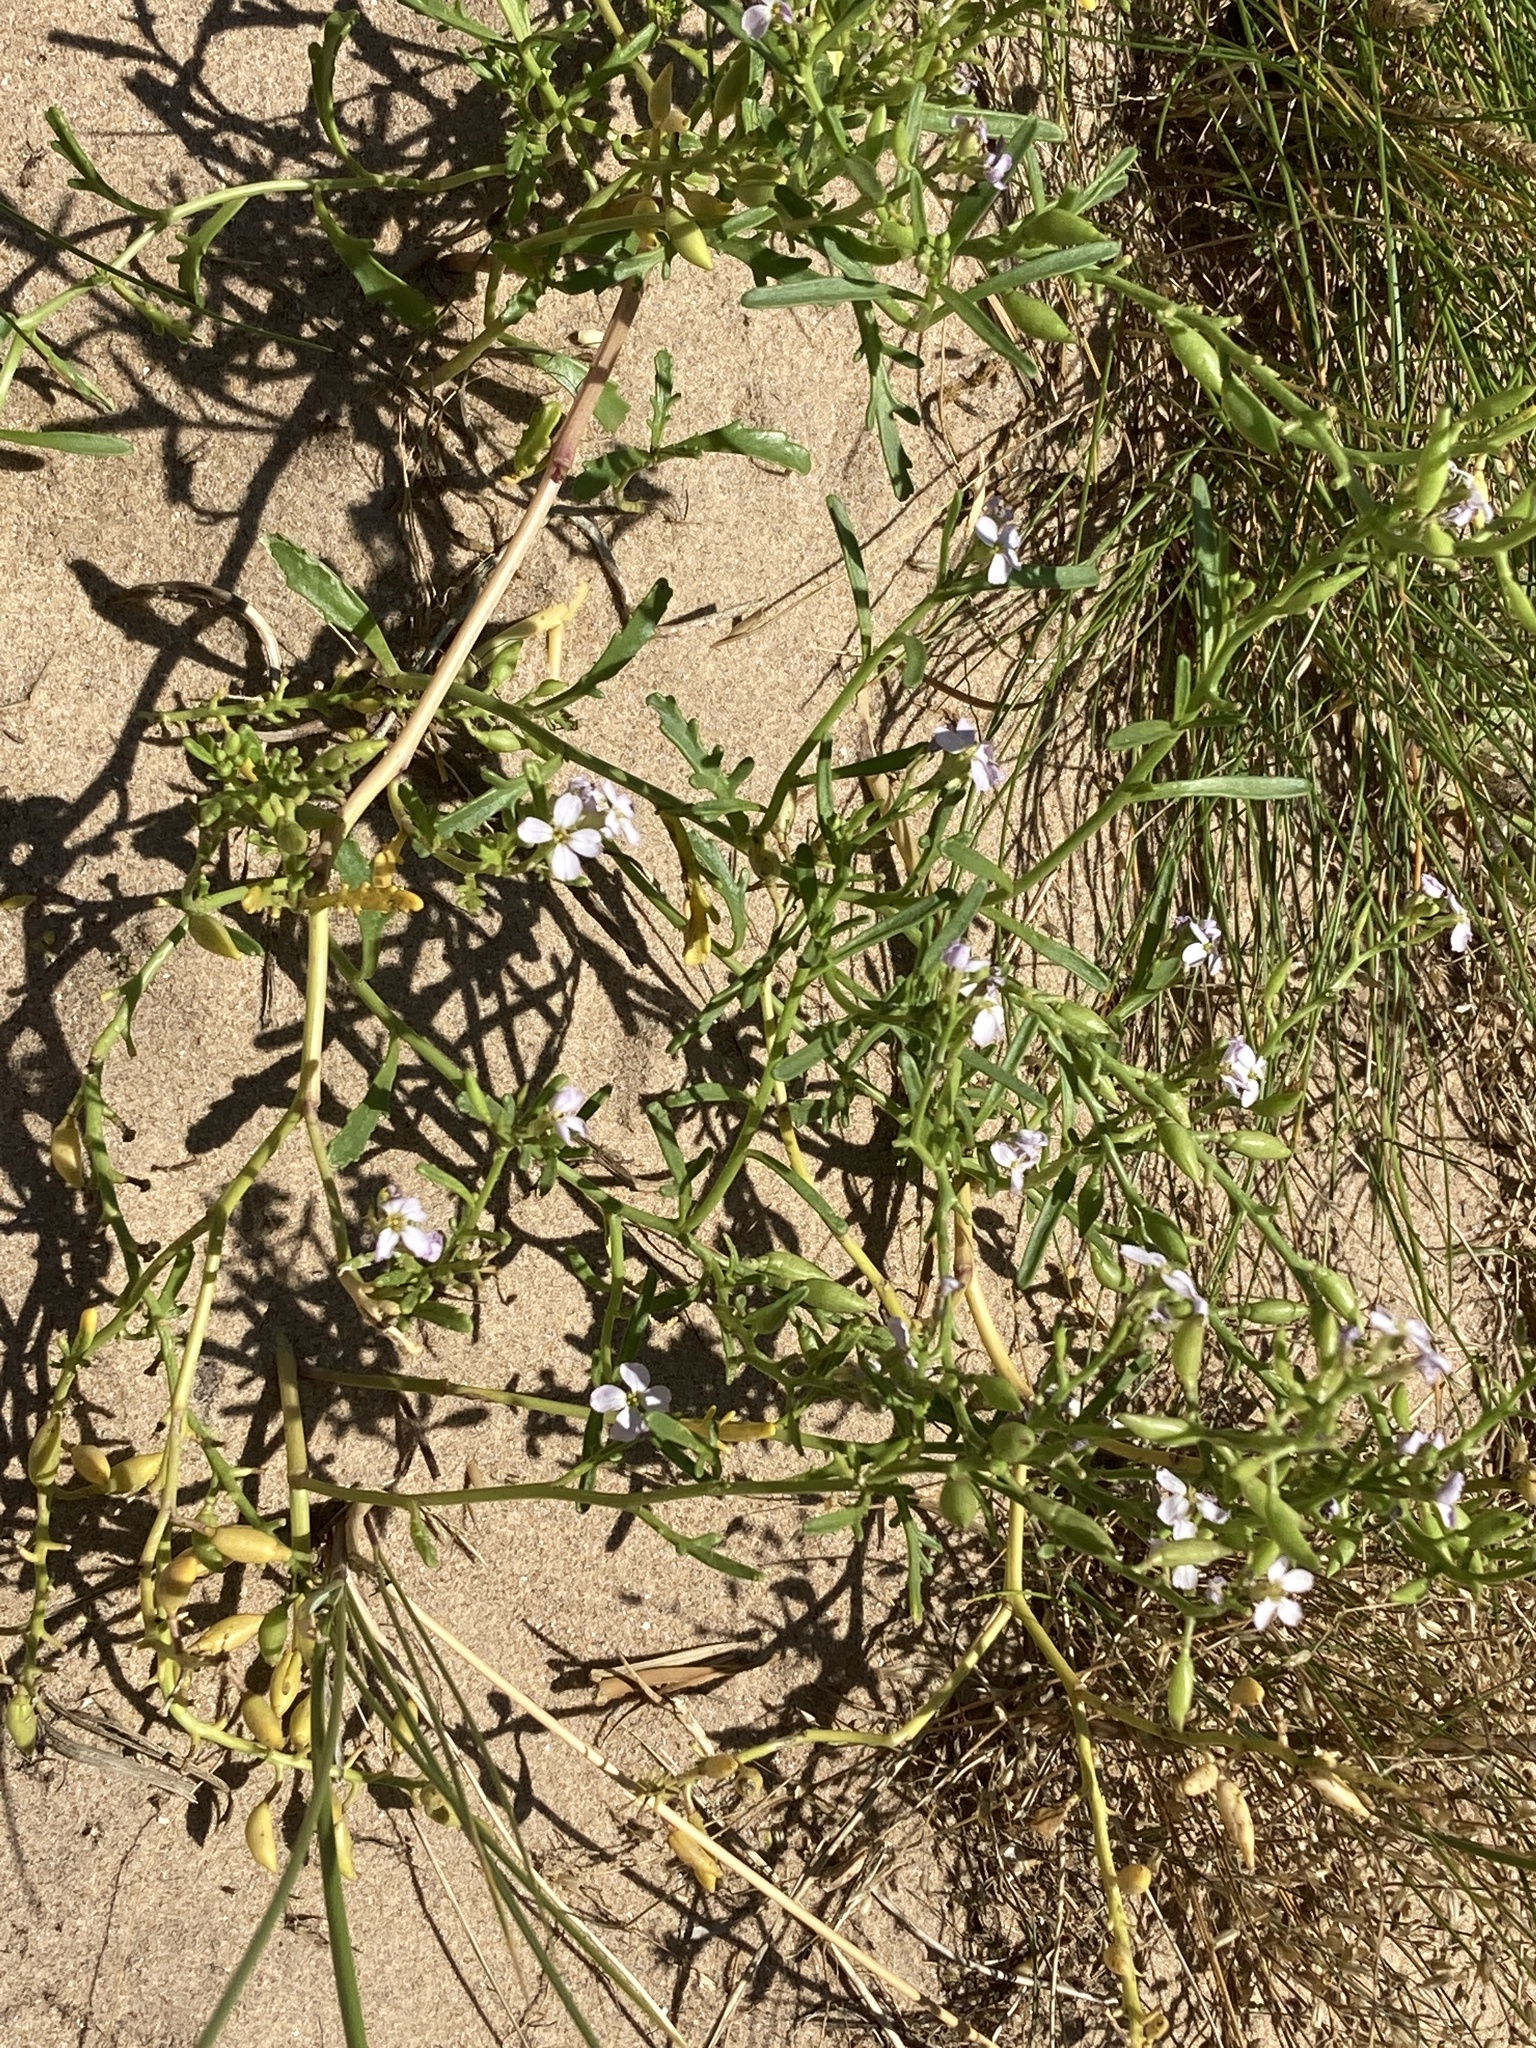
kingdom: Plantae
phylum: Tracheophyta
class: Magnoliopsida
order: Brassicales
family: Brassicaceae
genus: Cakile
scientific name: Cakile maritima
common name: Sea rocket
